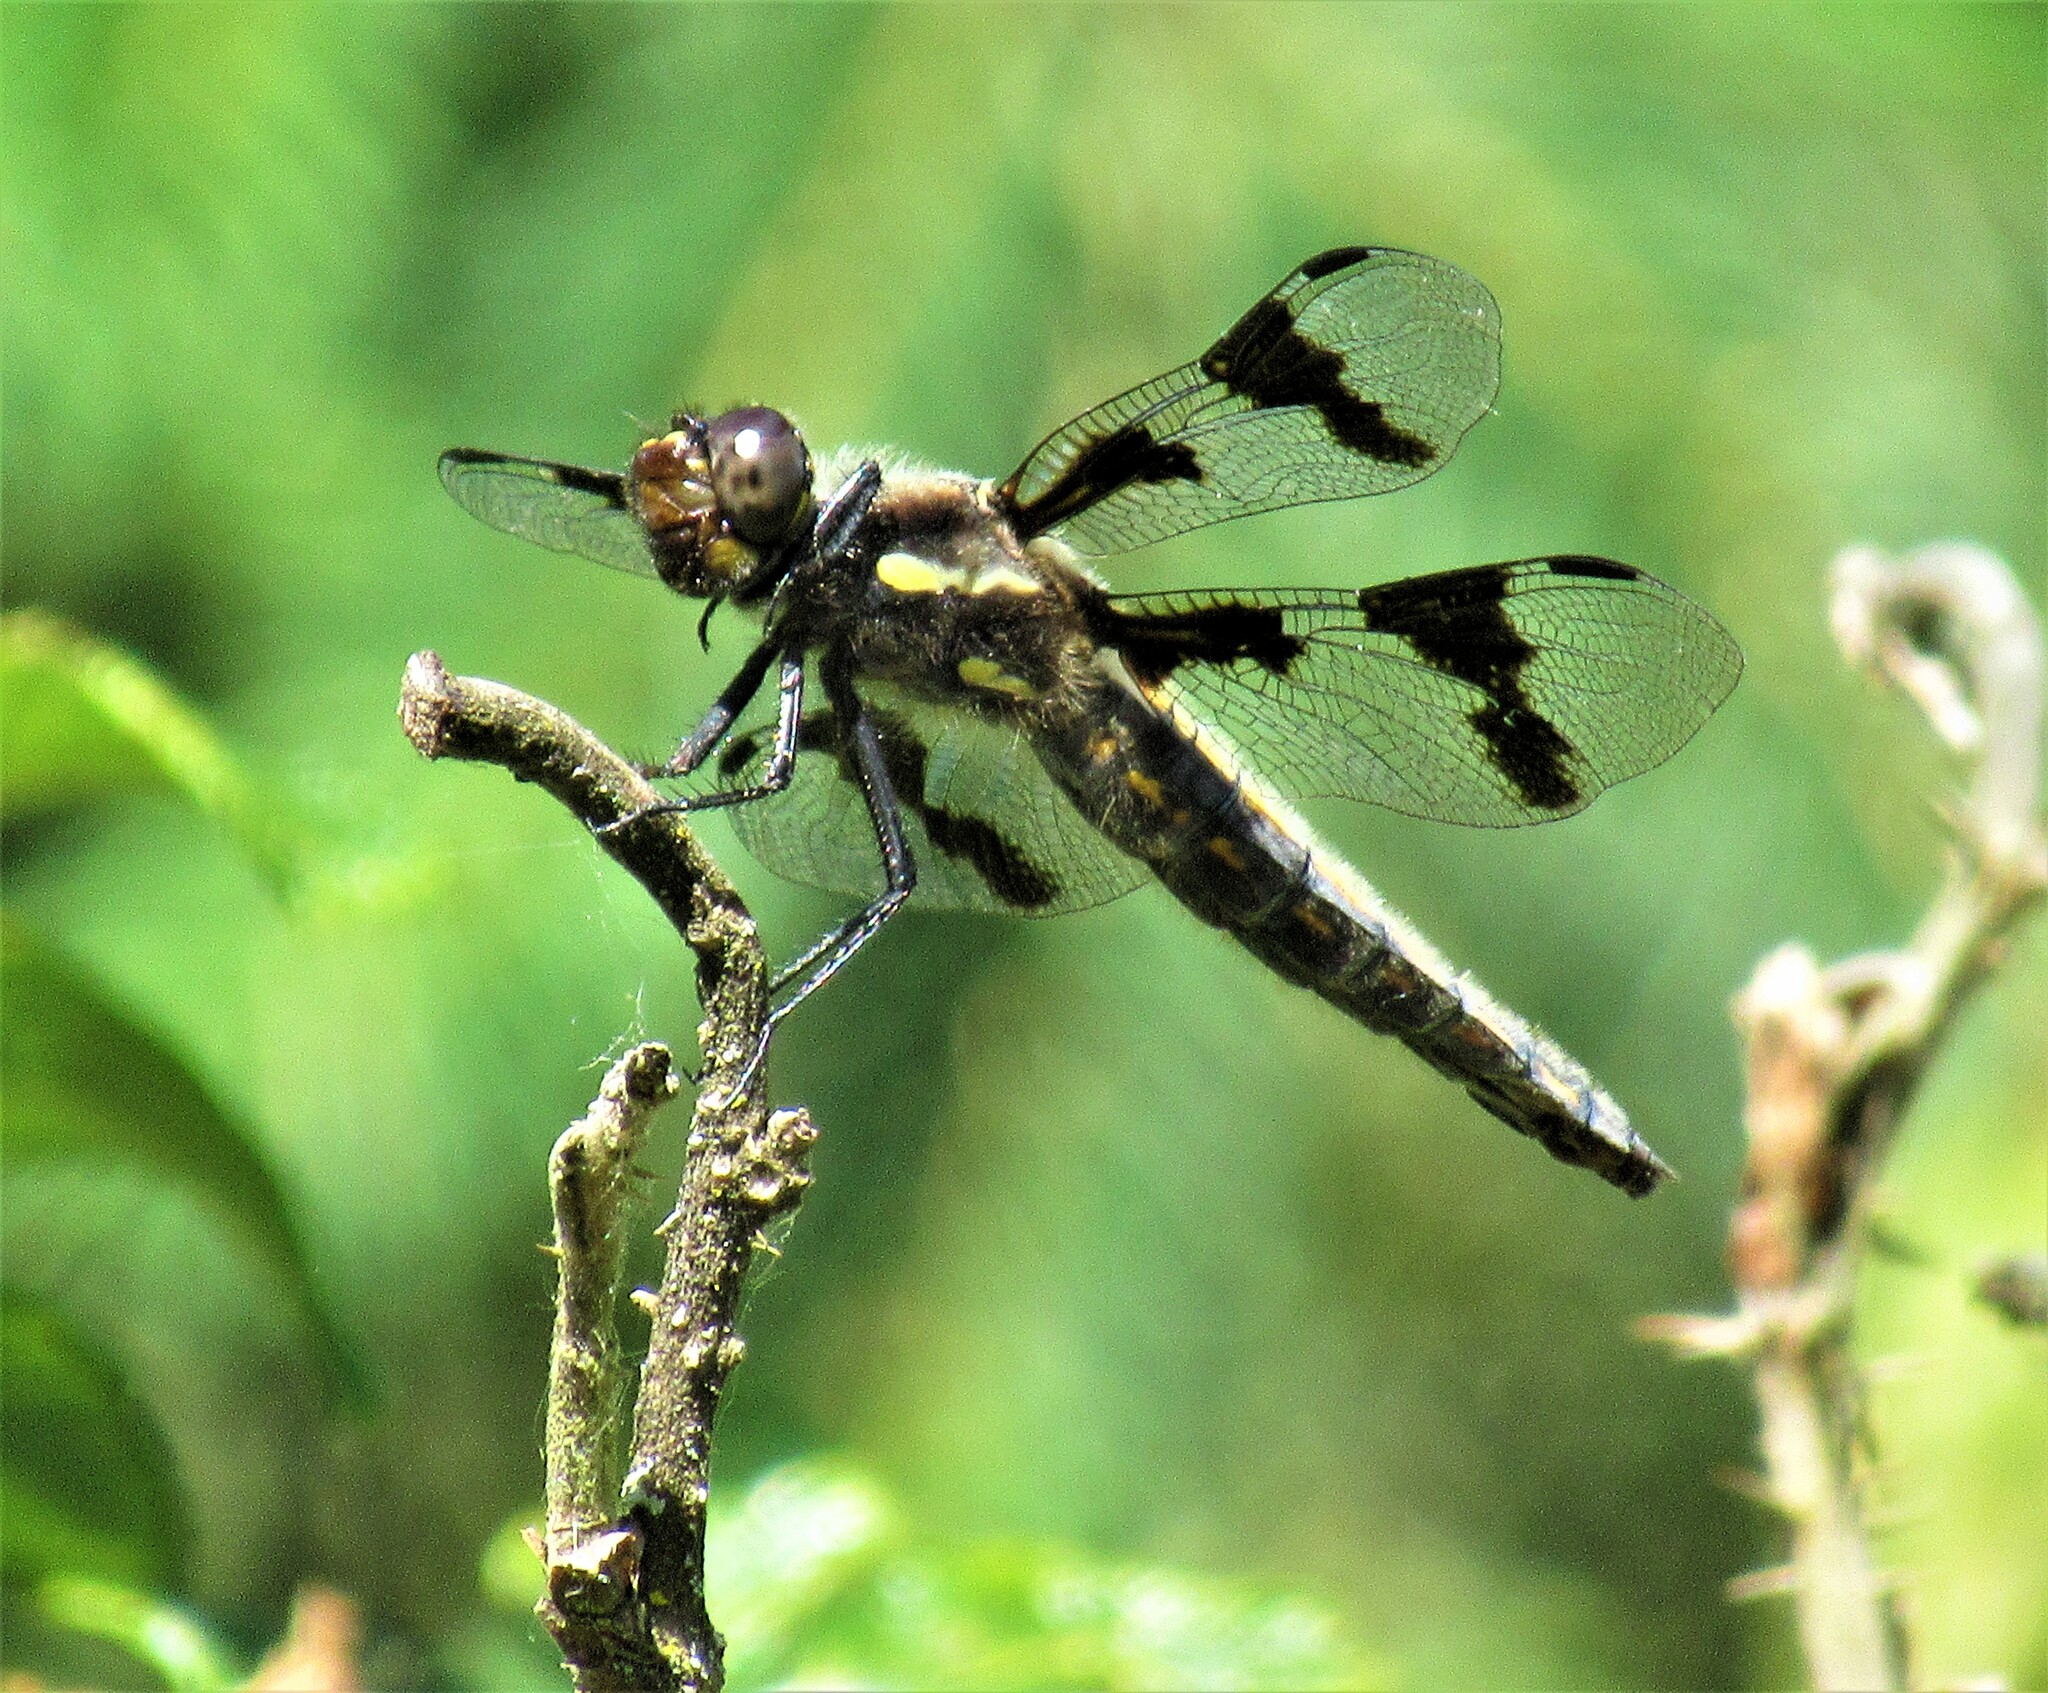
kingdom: Animalia
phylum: Arthropoda
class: Insecta
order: Odonata
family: Libellulidae
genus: Libellula
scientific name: Libellula forensis
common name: Eight-spotted skimmer
